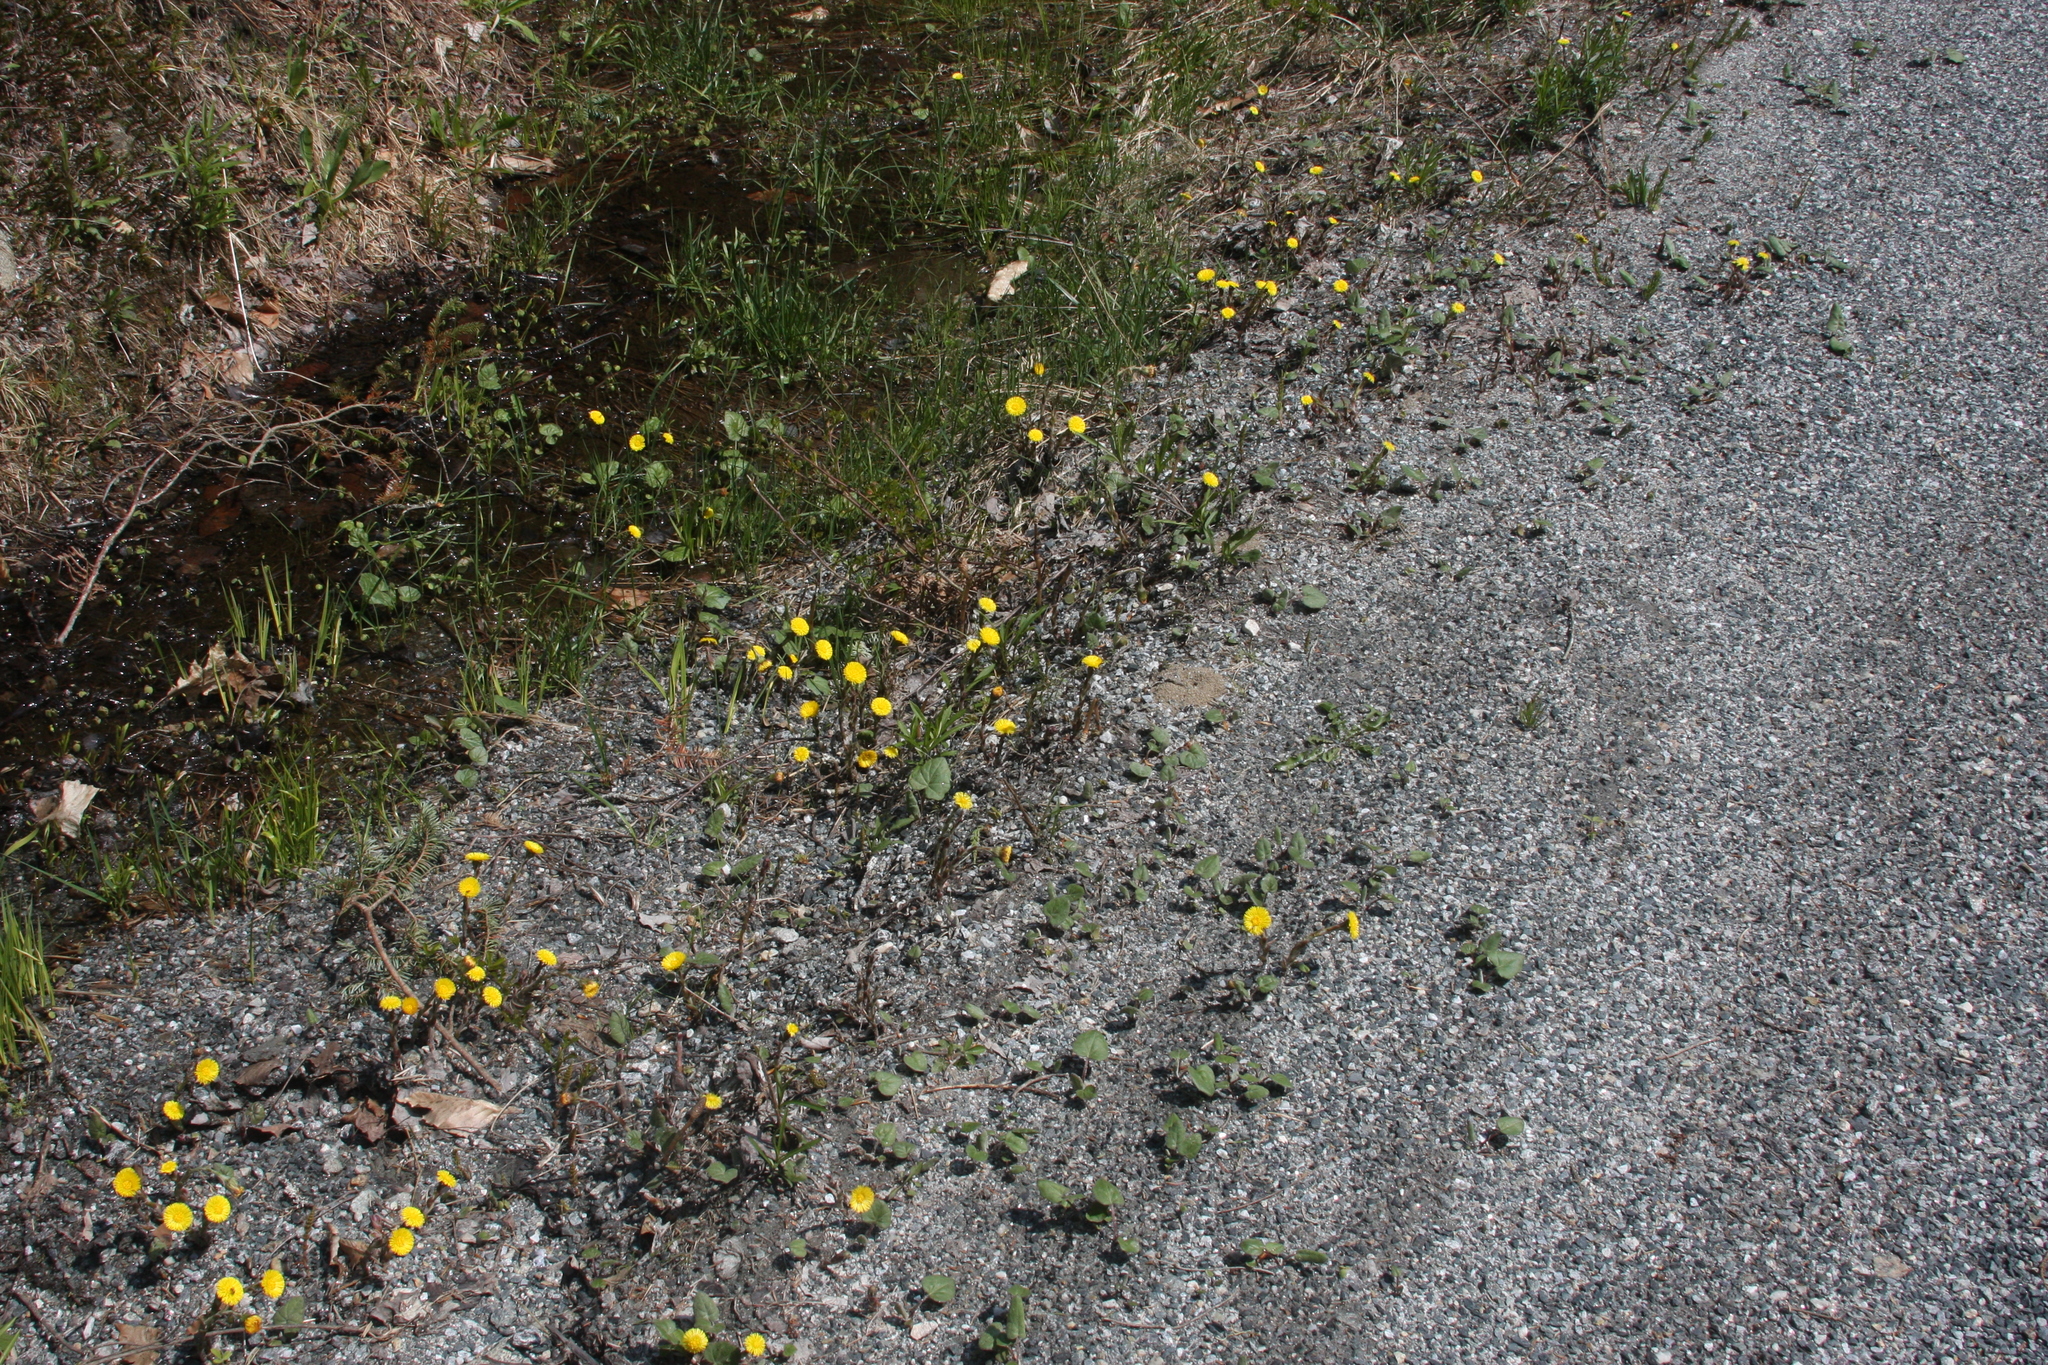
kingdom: Plantae
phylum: Tracheophyta
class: Magnoliopsida
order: Asterales
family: Asteraceae
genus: Tussilago
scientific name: Tussilago farfara
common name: Coltsfoot
